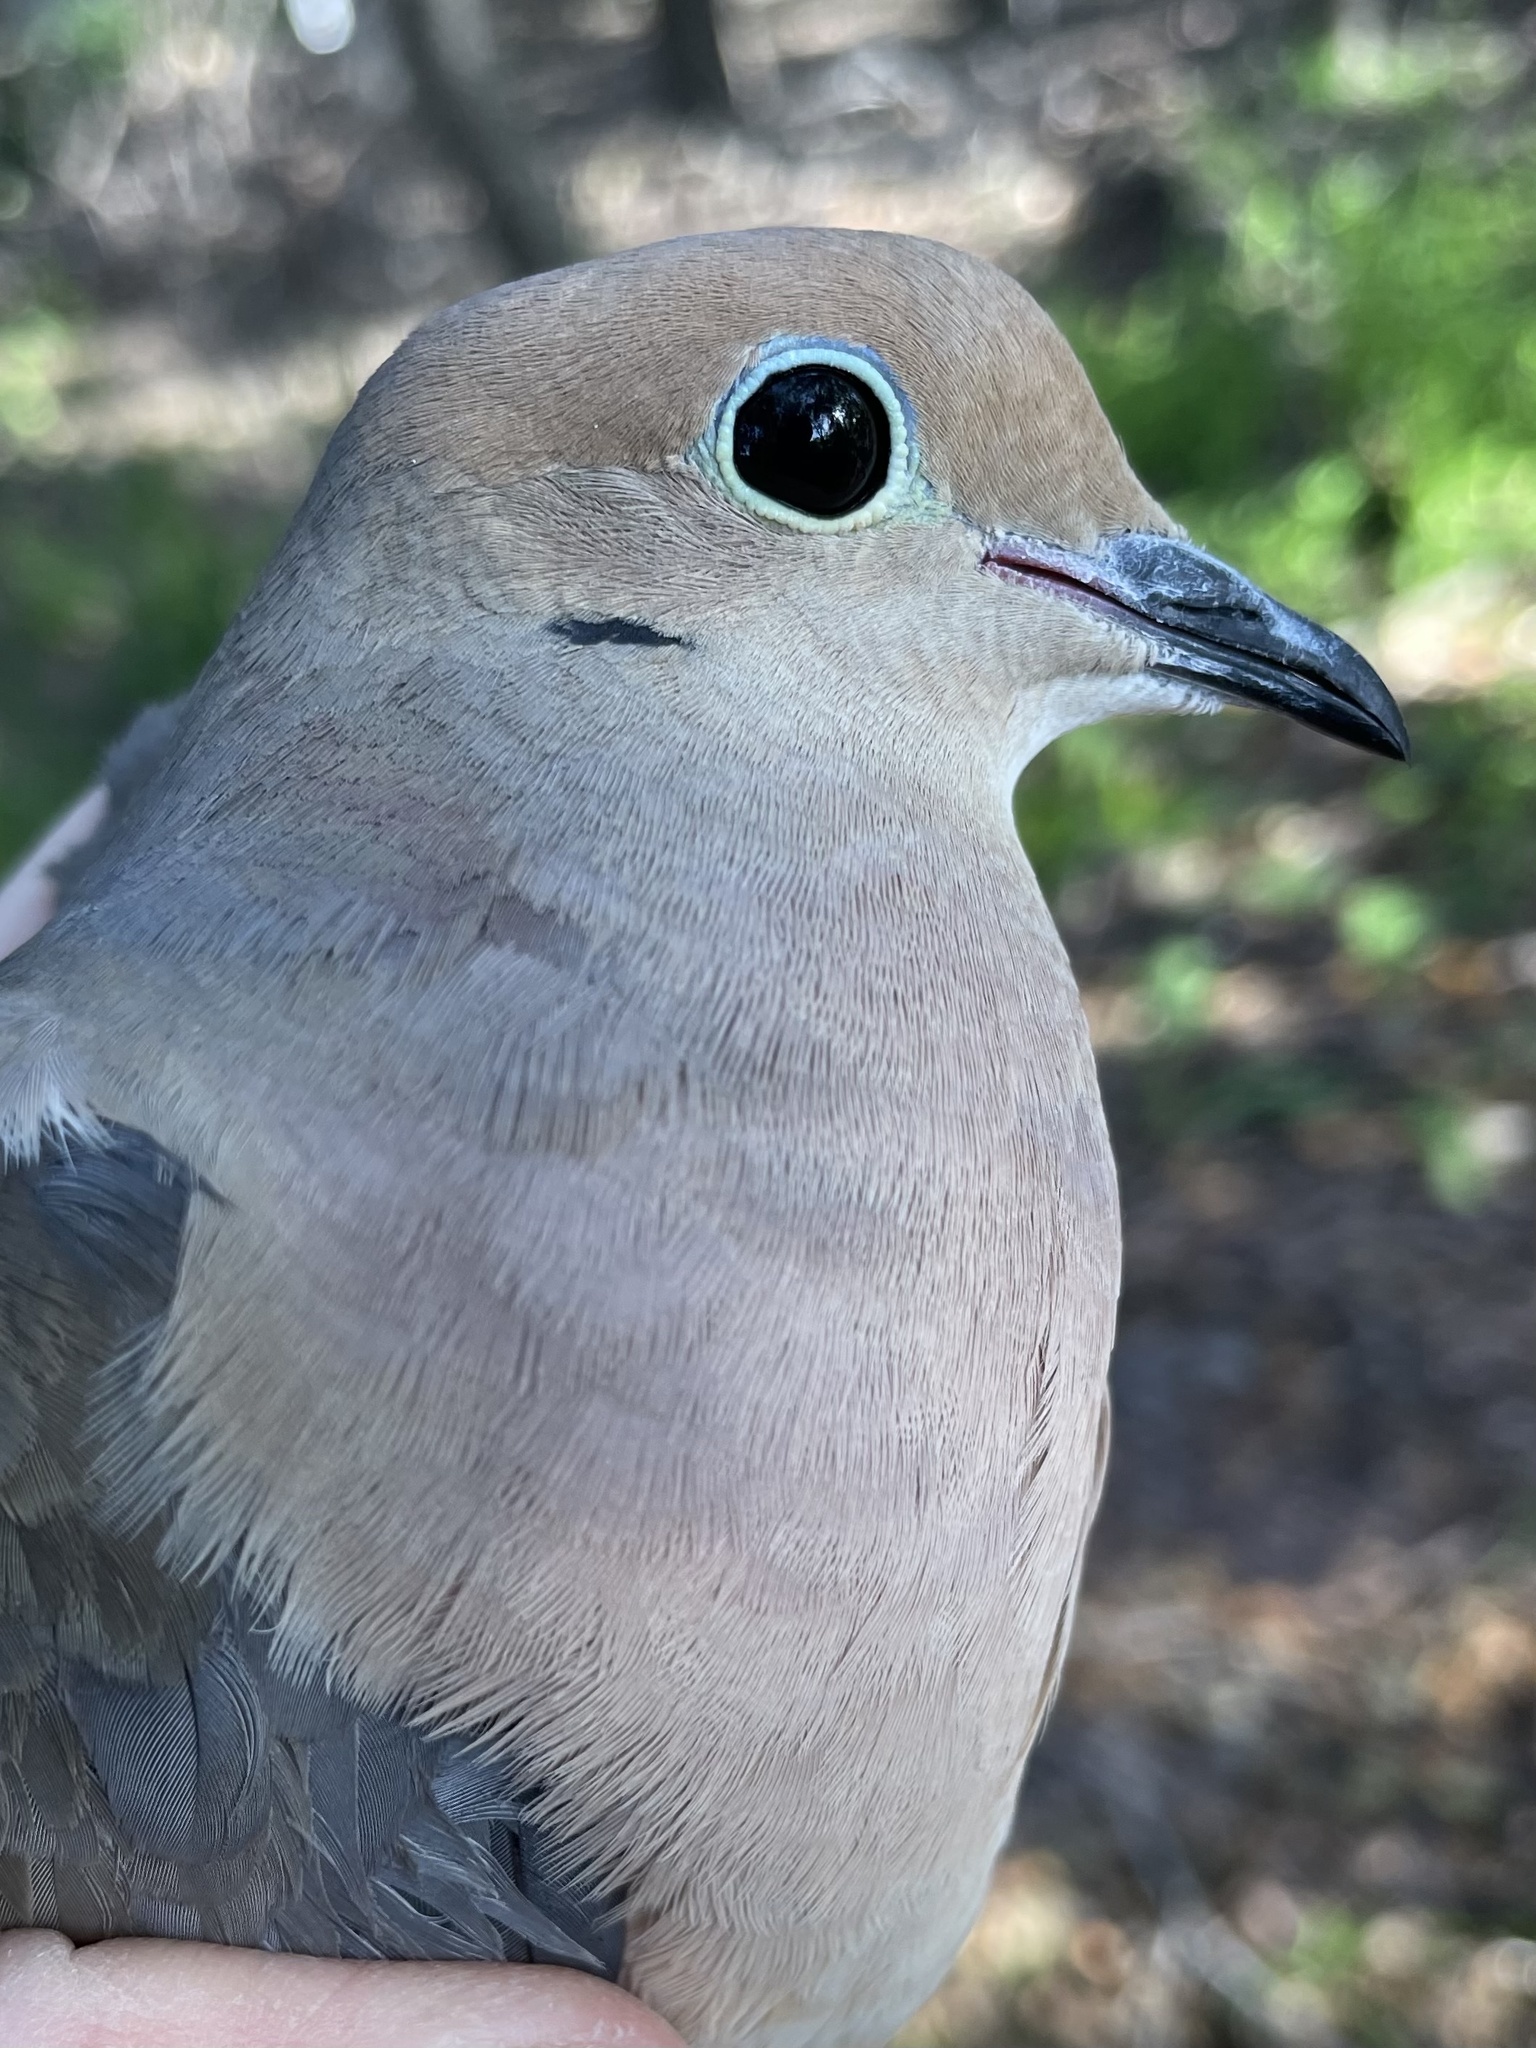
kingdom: Animalia
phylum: Chordata
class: Aves
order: Columbiformes
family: Columbidae
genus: Zenaida
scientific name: Zenaida macroura
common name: Mourning dove
